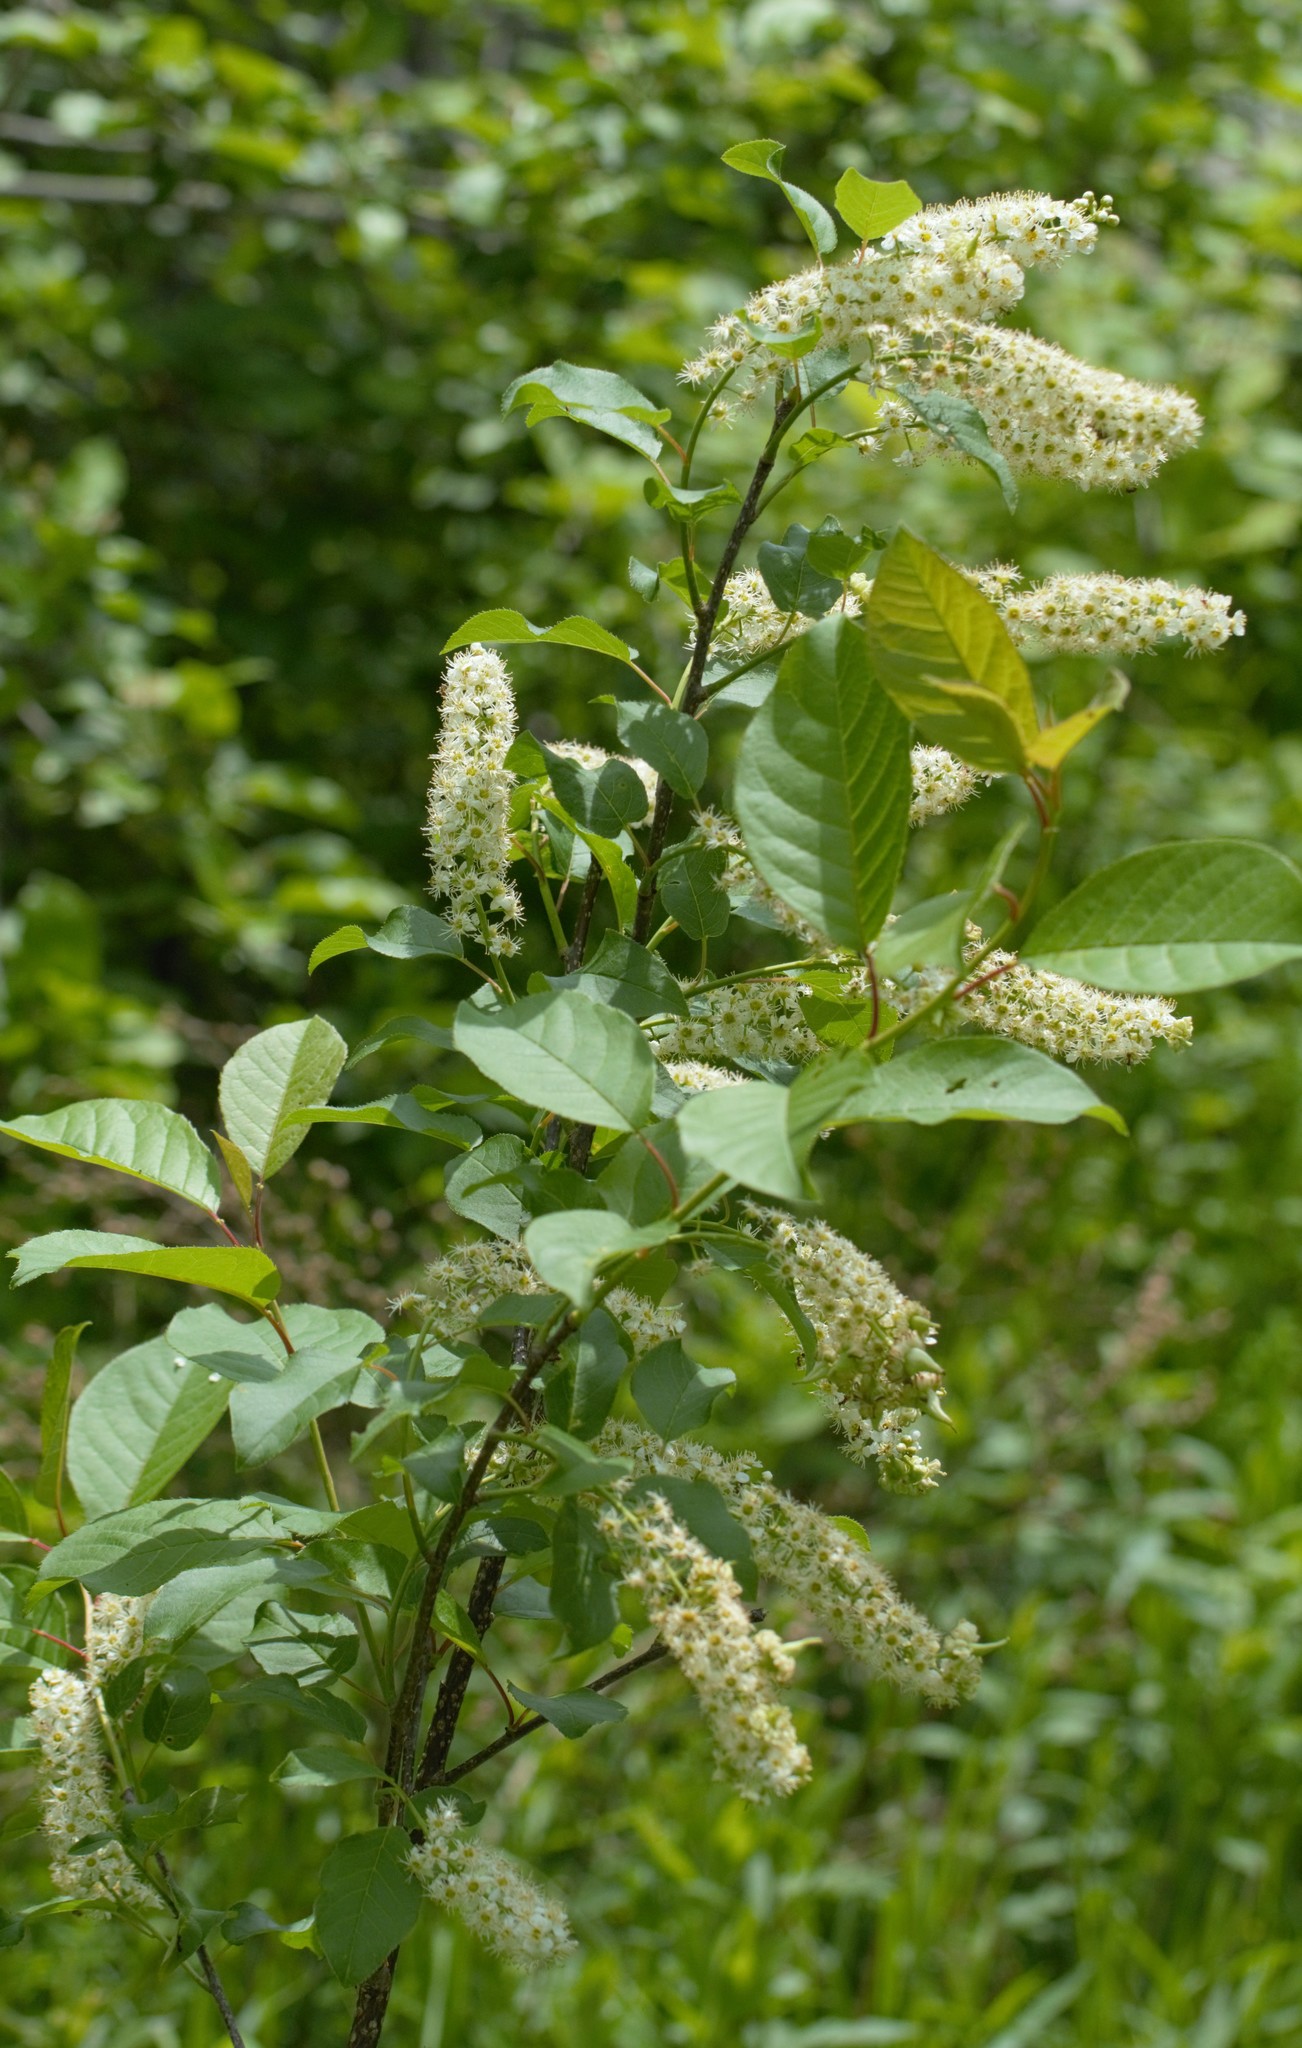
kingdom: Plantae
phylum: Tracheophyta
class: Magnoliopsida
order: Rosales
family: Rosaceae
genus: Prunus
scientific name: Prunus virginiana
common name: Chokecherry
